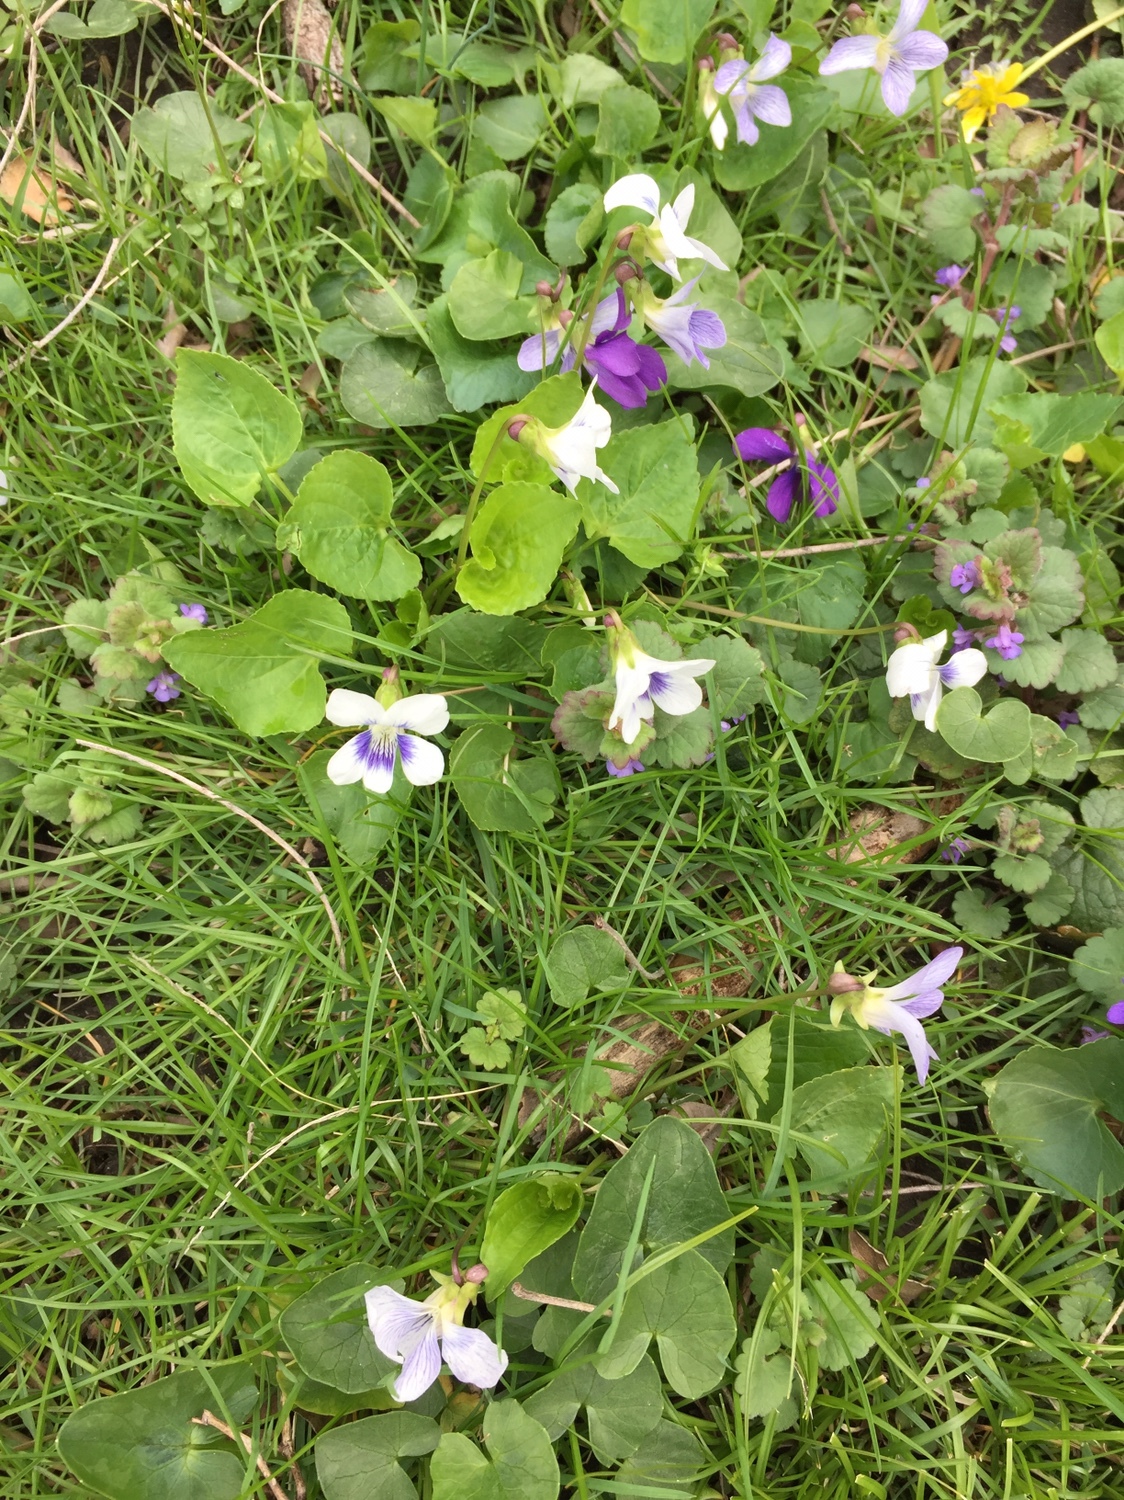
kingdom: Plantae
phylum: Tracheophyta
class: Magnoliopsida
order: Malpighiales
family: Violaceae
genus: Viola
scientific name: Viola sororia
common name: Dooryard violet
